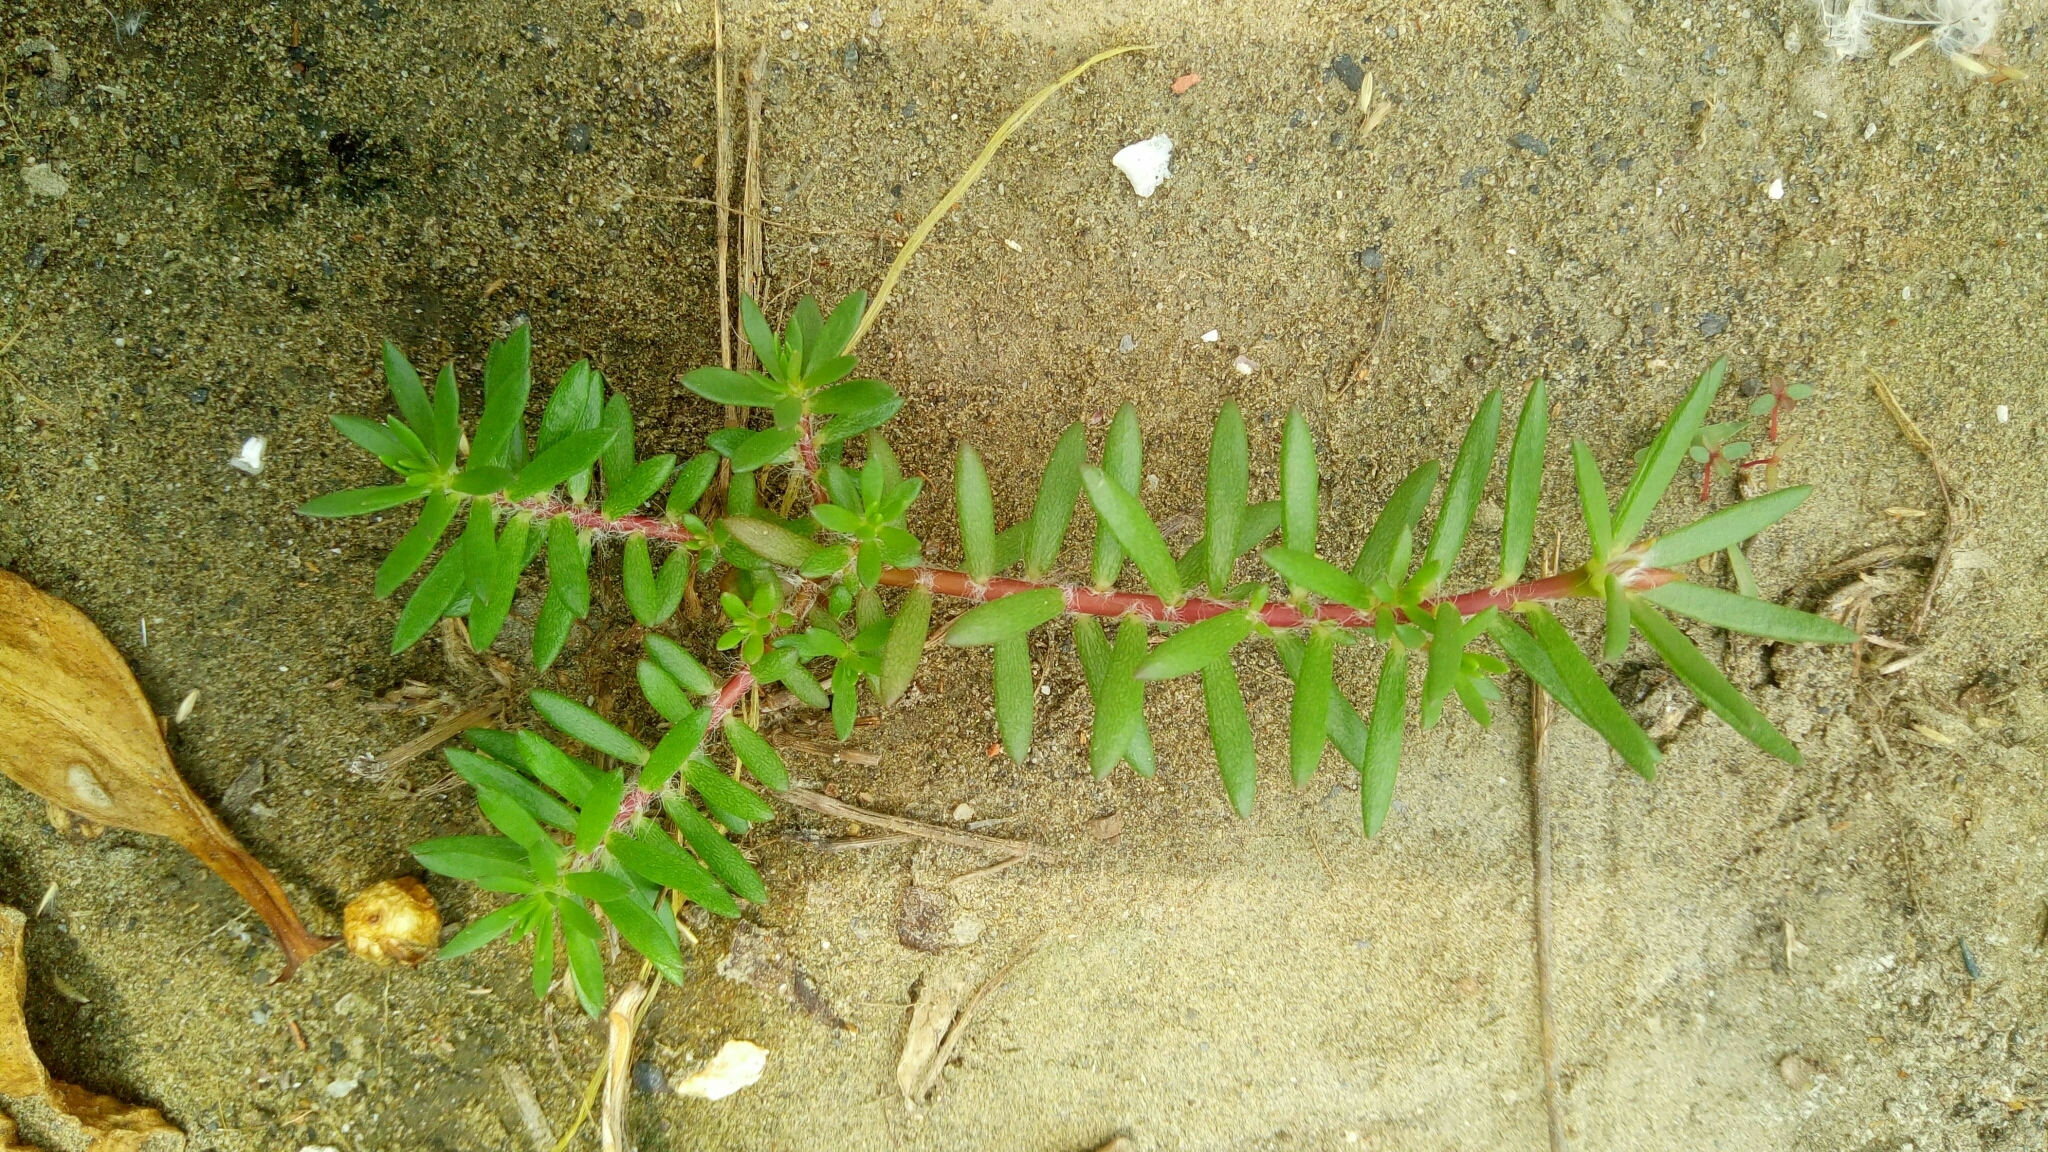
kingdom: Plantae
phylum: Tracheophyta
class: Magnoliopsida
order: Caryophyllales
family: Portulacaceae
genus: Portulaca
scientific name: Portulaca pilosa
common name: Kiss me quick
